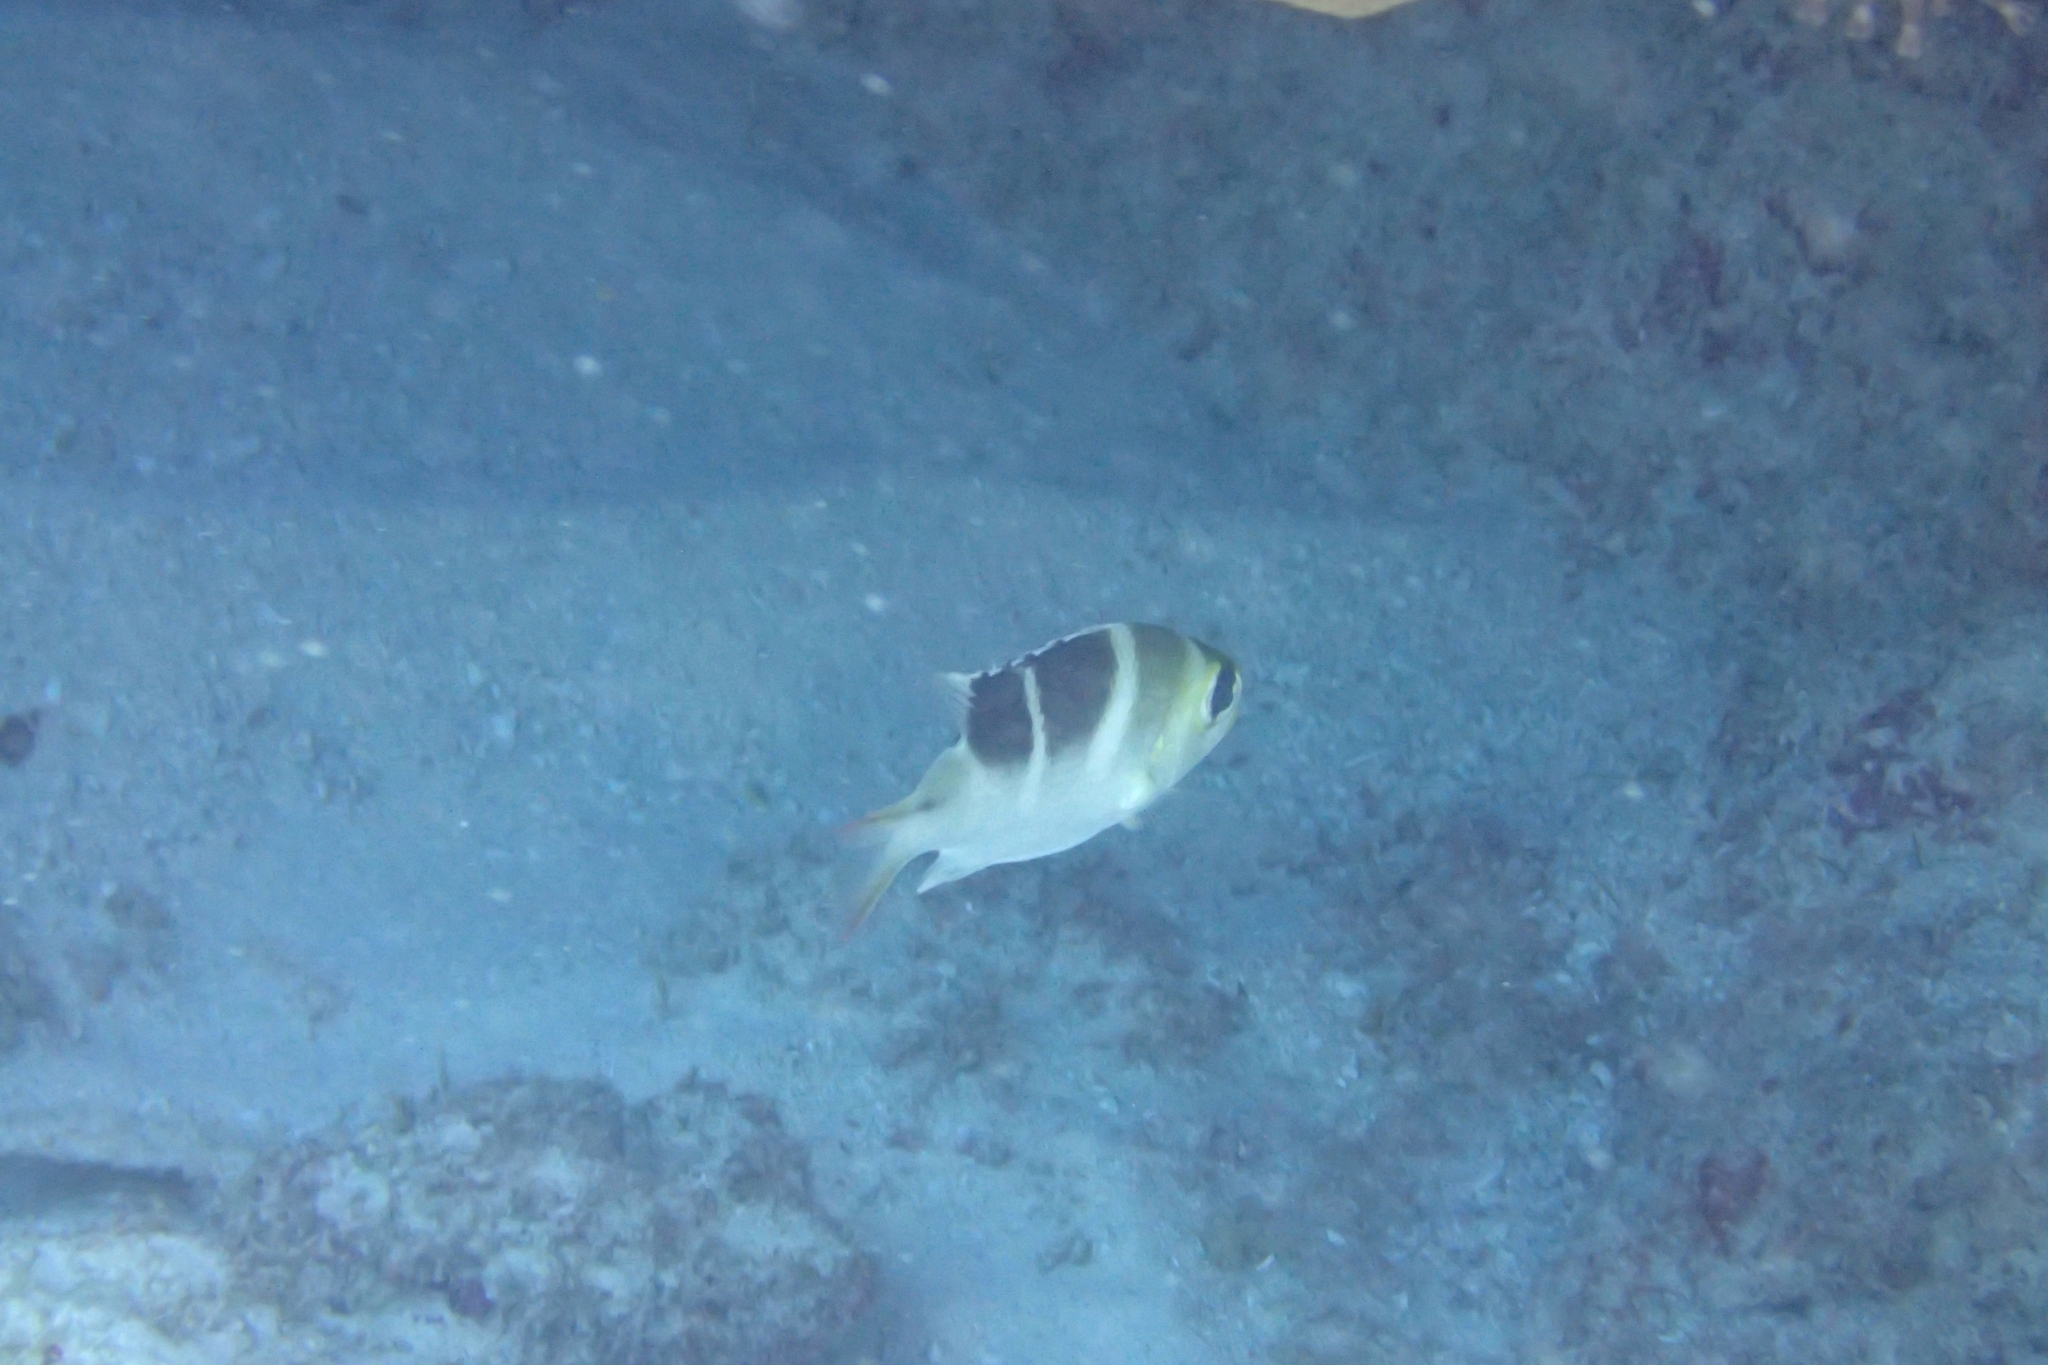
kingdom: Animalia
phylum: Chordata
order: Perciformes
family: Lethrinidae
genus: Monotaxis
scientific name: Monotaxis grandoculis
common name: Bigeye emperor
